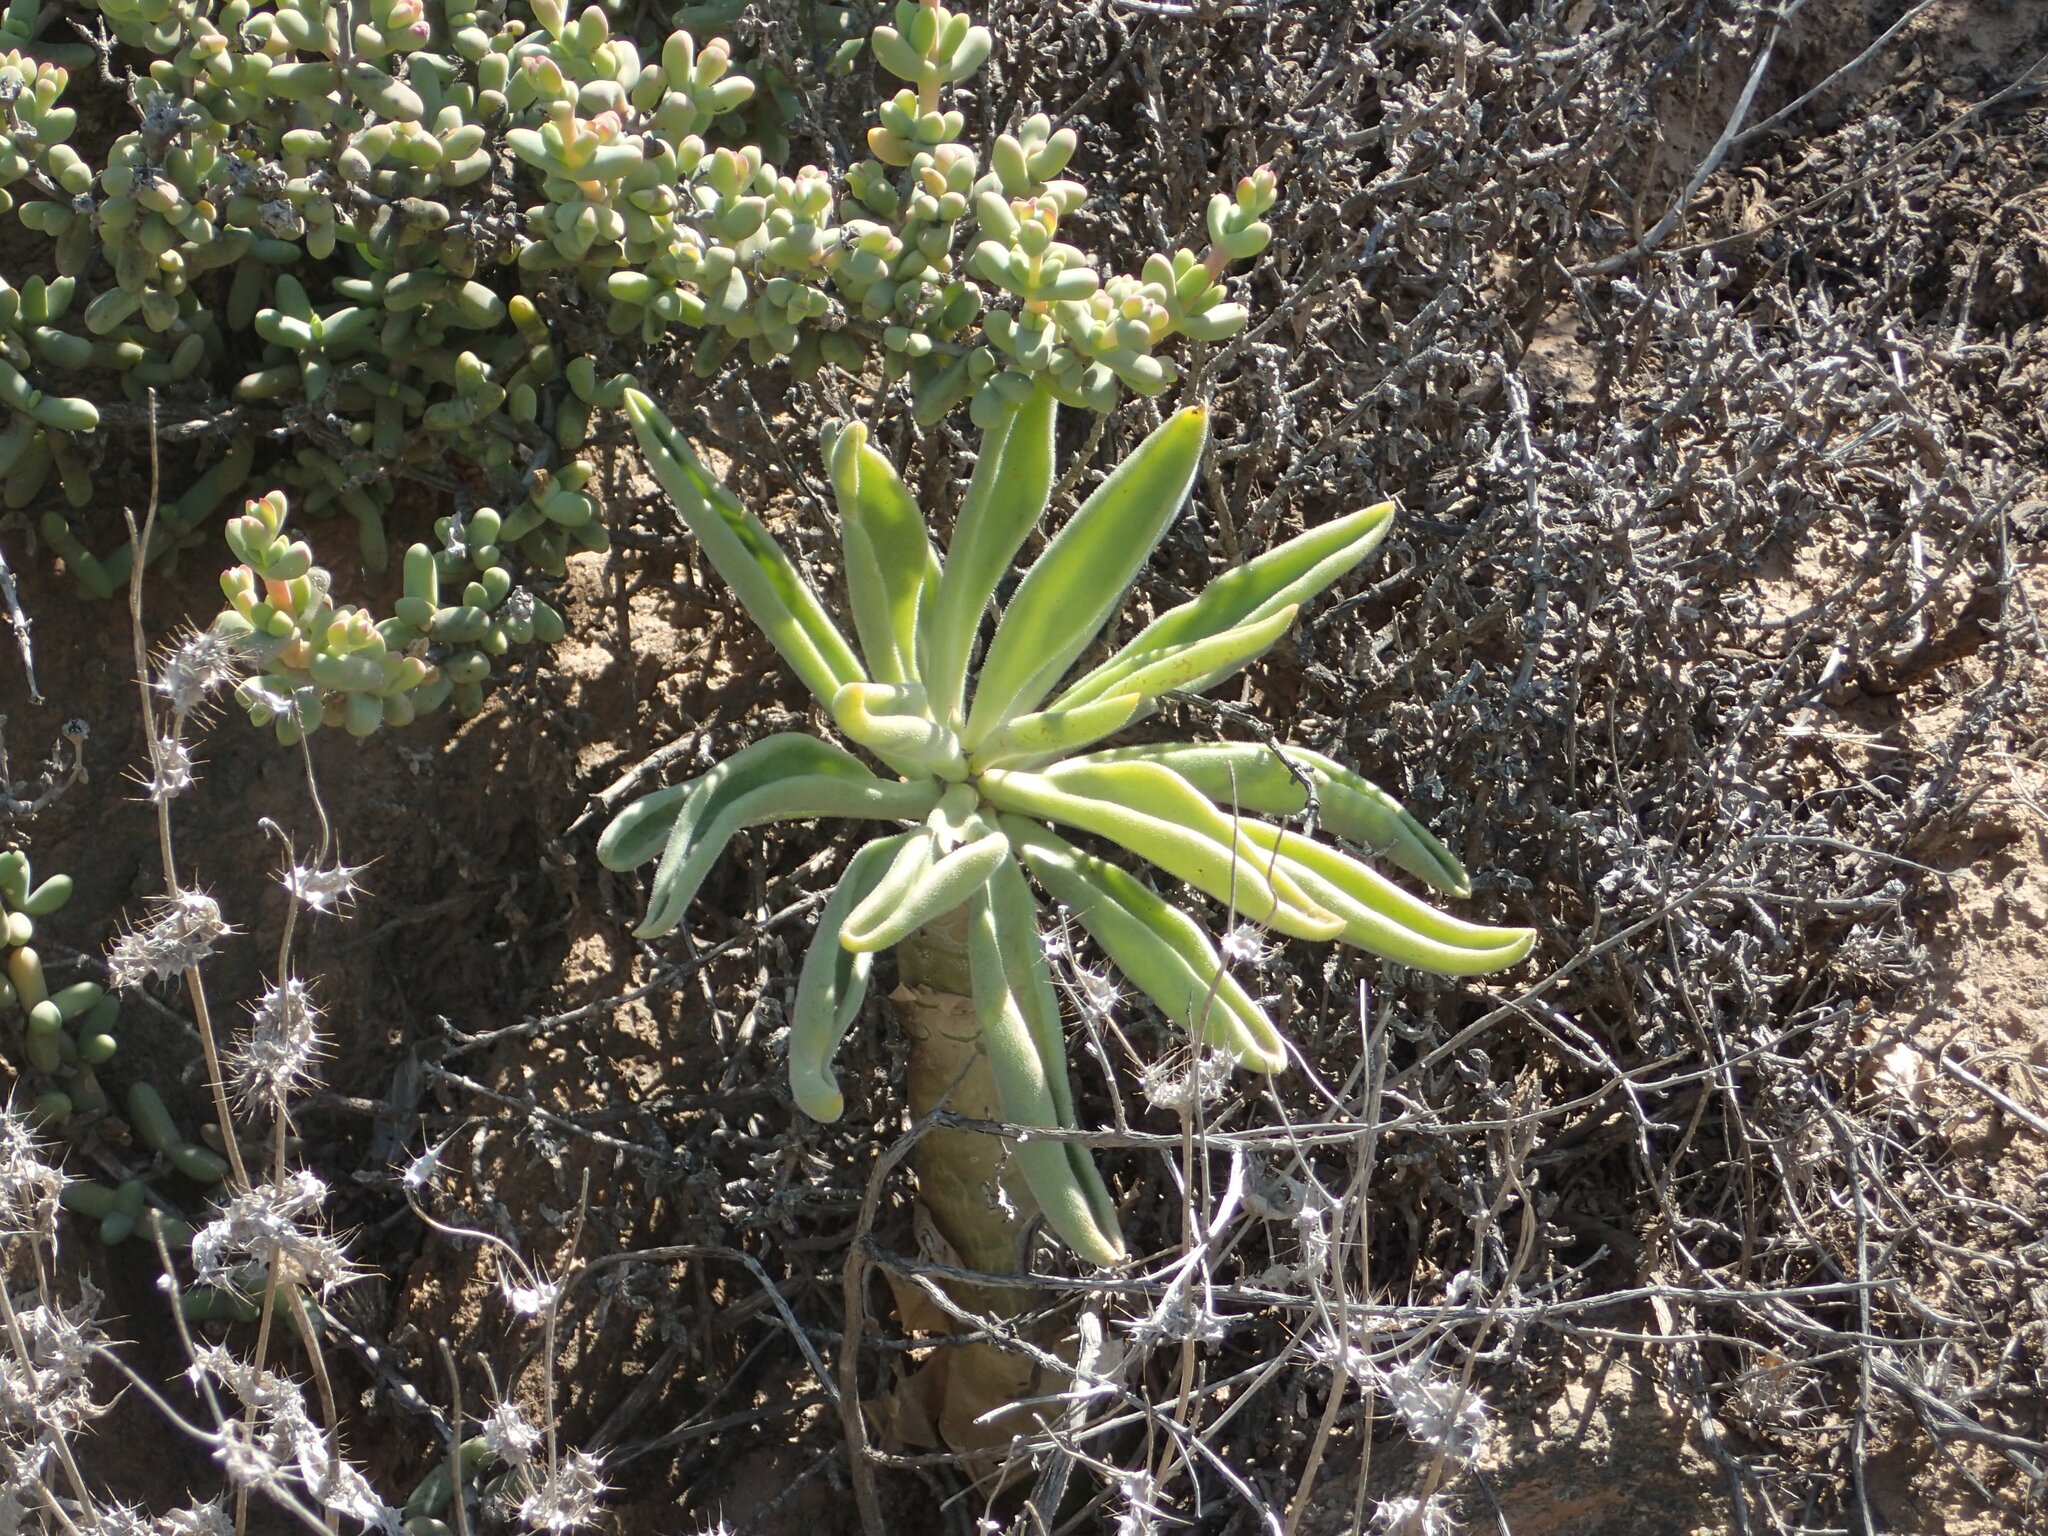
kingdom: Plantae
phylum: Tracheophyta
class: Magnoliopsida
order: Saxifragales
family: Crassulaceae
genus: Tylecodon
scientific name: Tylecodon paniculatus
